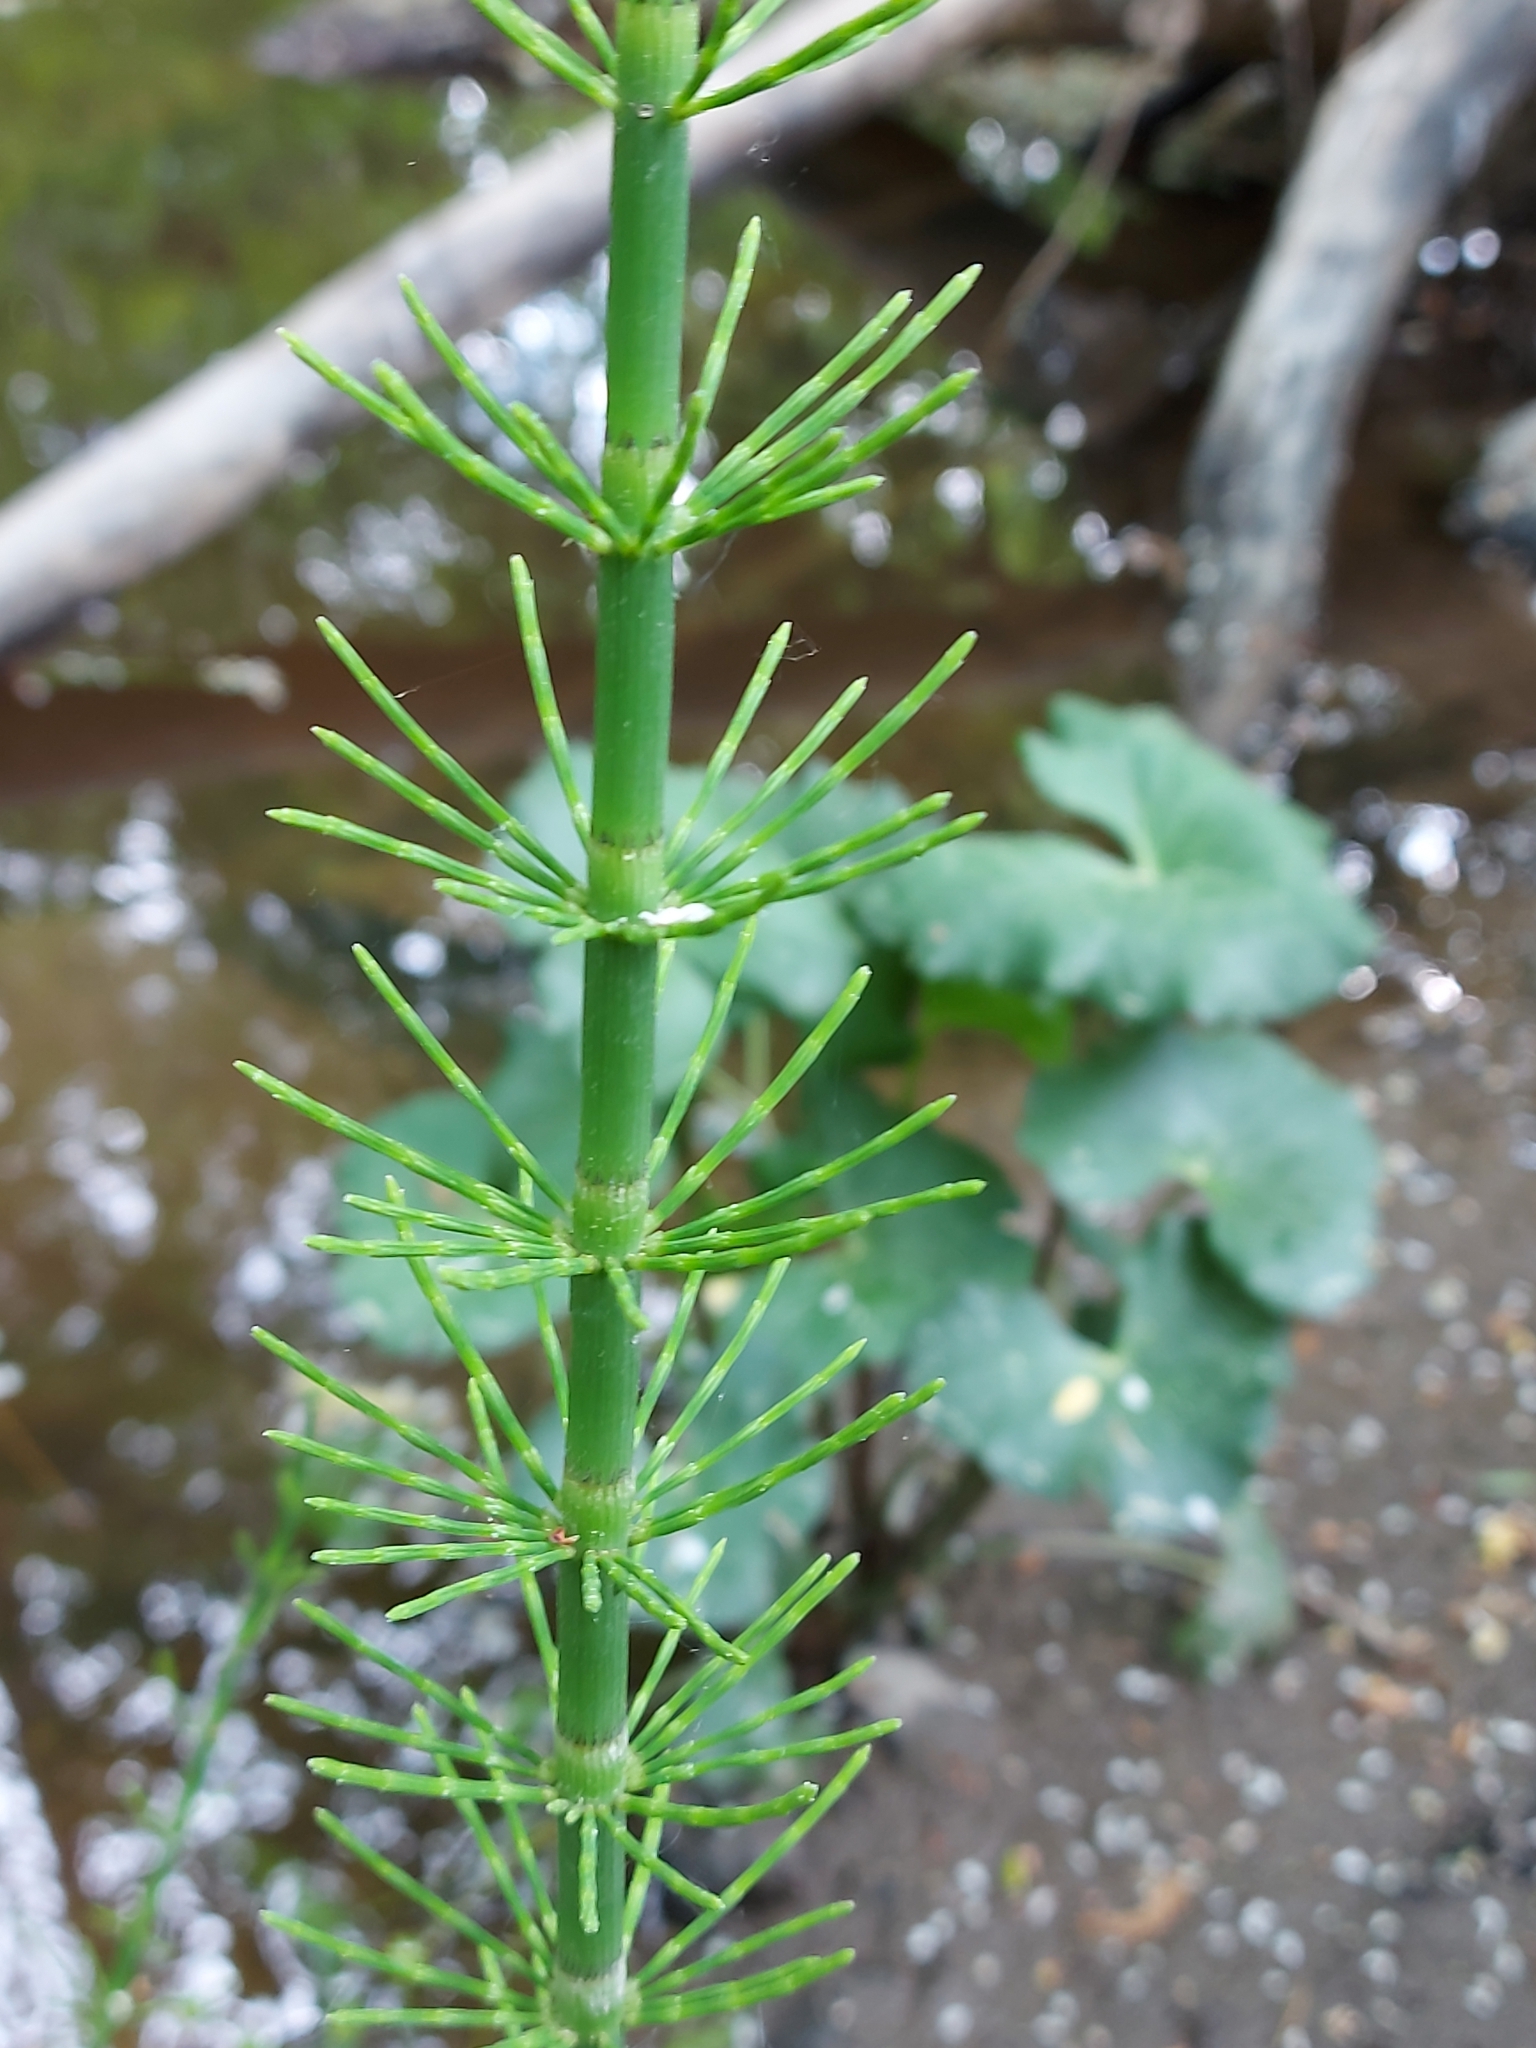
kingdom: Plantae
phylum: Tracheophyta
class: Polypodiopsida
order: Equisetales
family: Equisetaceae
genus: Equisetum
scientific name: Equisetum fluviatile
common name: Water horsetail
